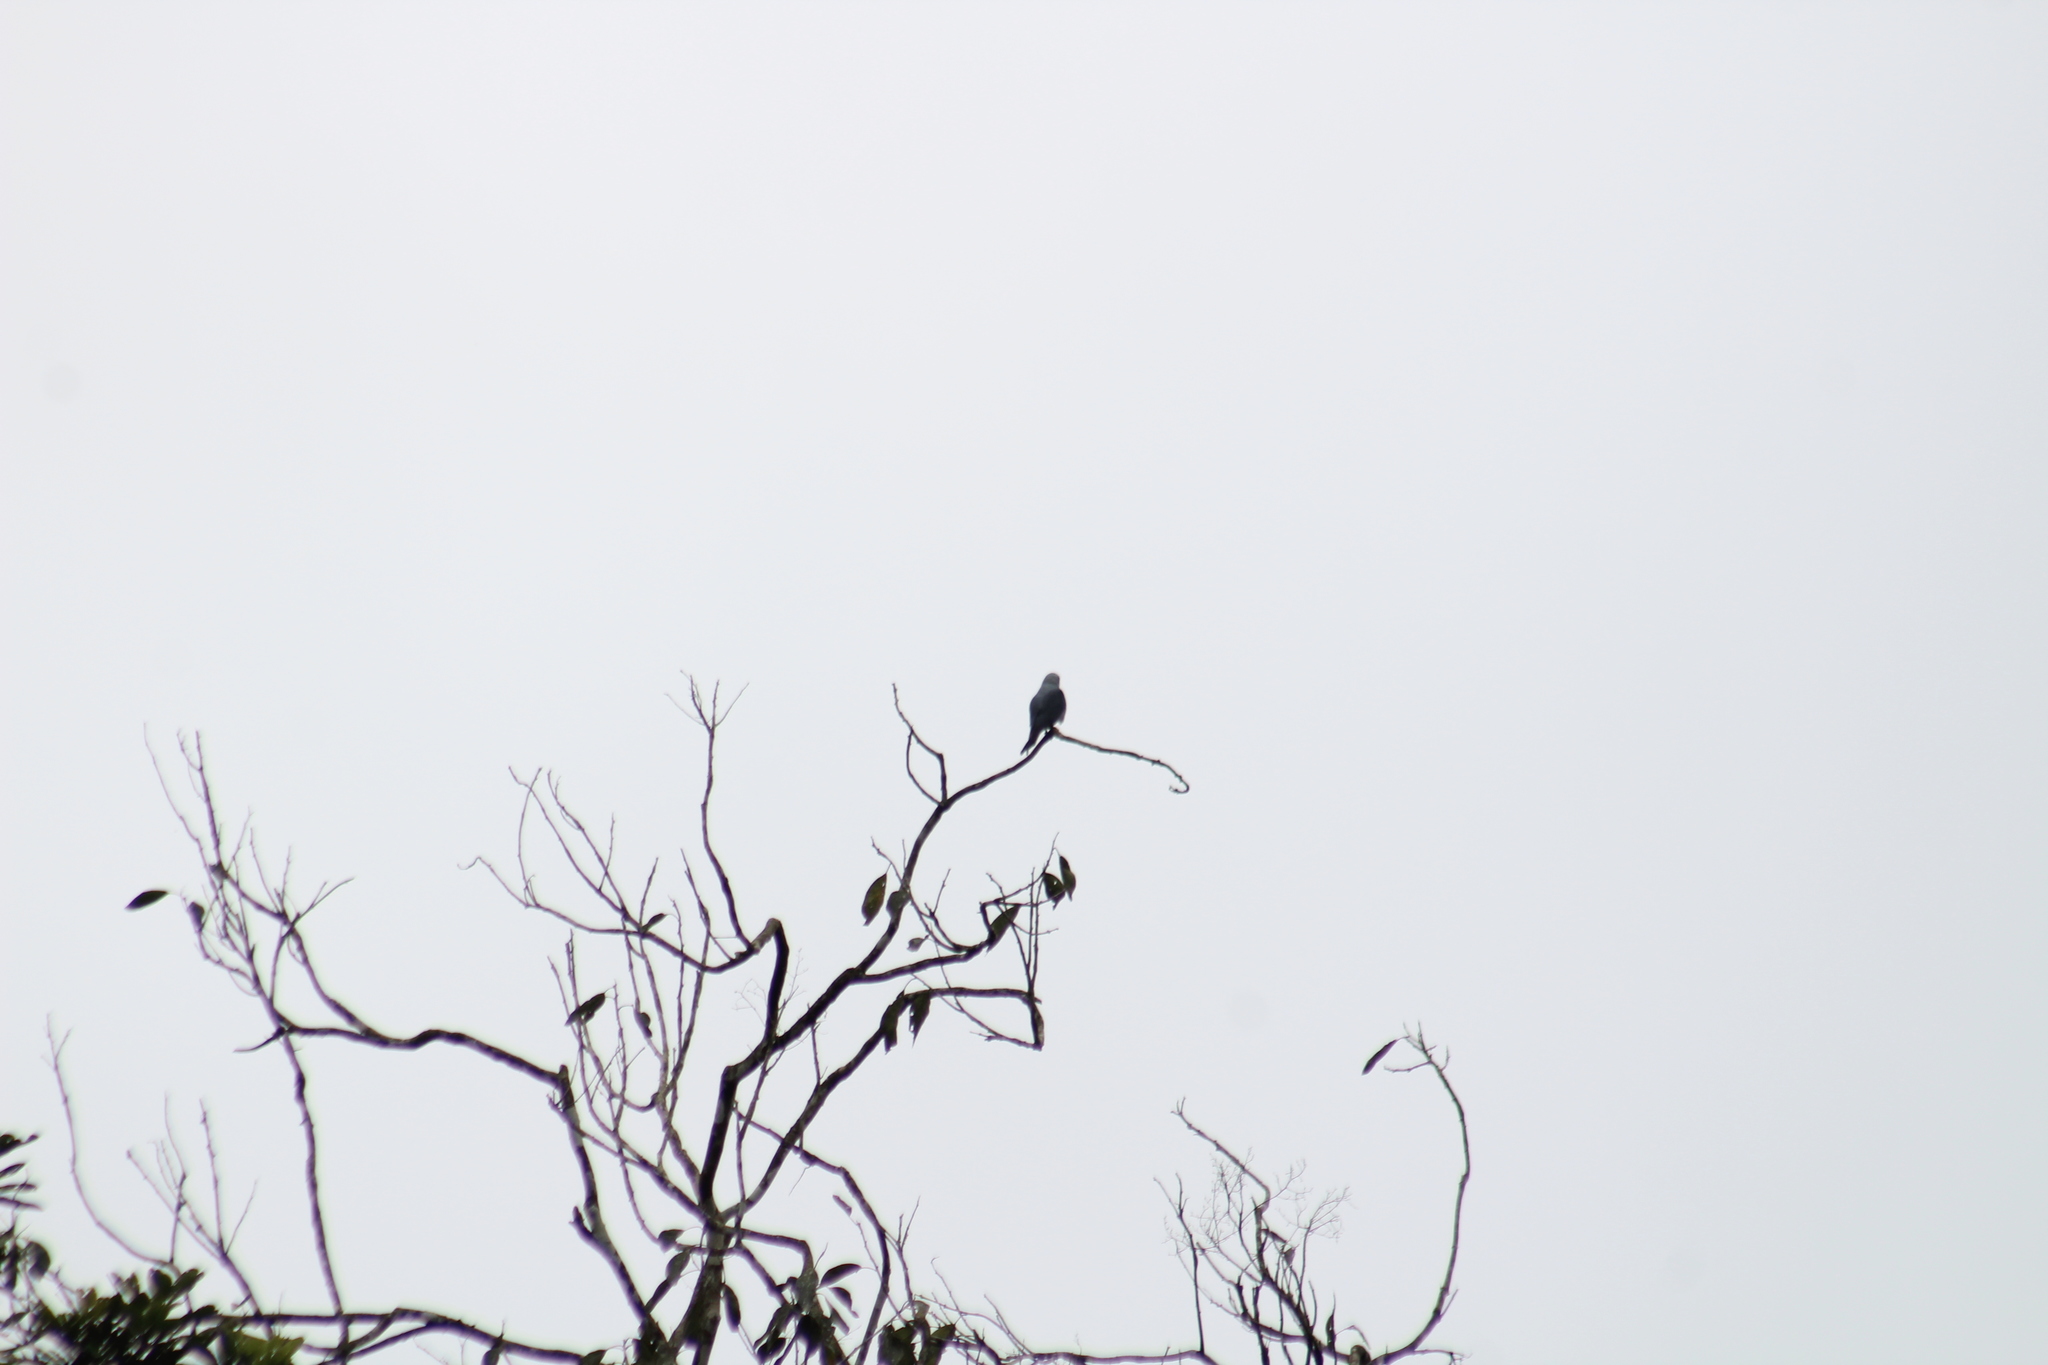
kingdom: Animalia
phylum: Chordata
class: Aves
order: Accipitriformes
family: Accipitridae
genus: Ictinia
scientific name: Ictinia plumbea
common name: Plumbeous kite
